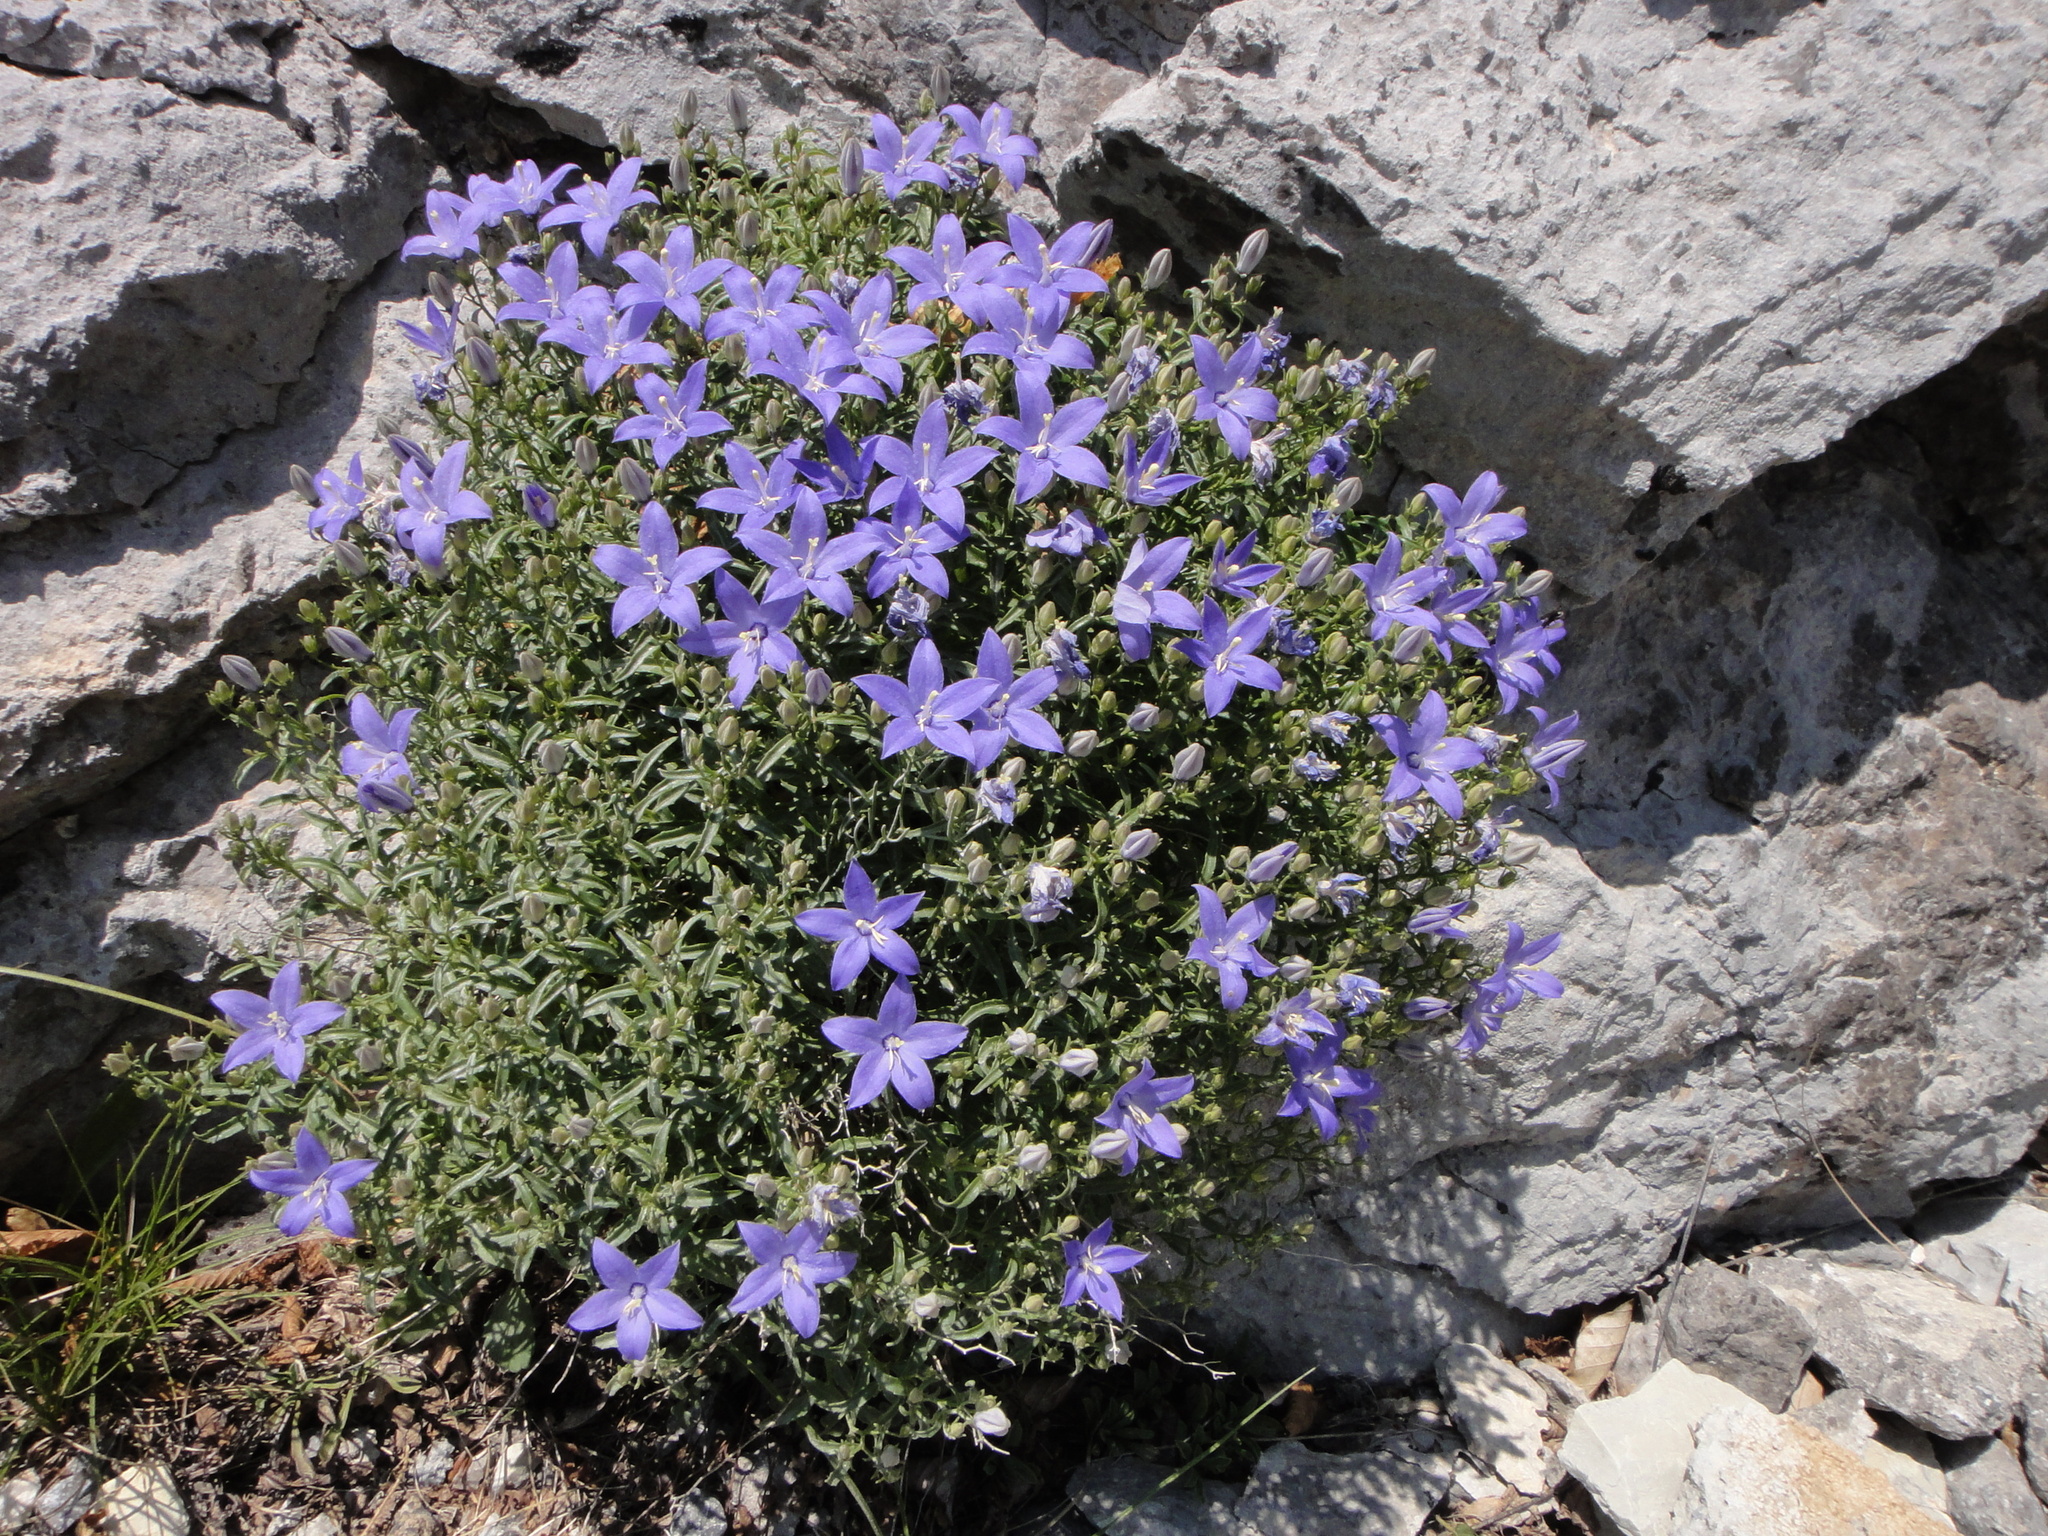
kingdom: Plantae
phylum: Tracheophyta
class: Magnoliopsida
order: Asterales
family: Campanulaceae
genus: Campanula
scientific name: Campanula waldsteiniana
